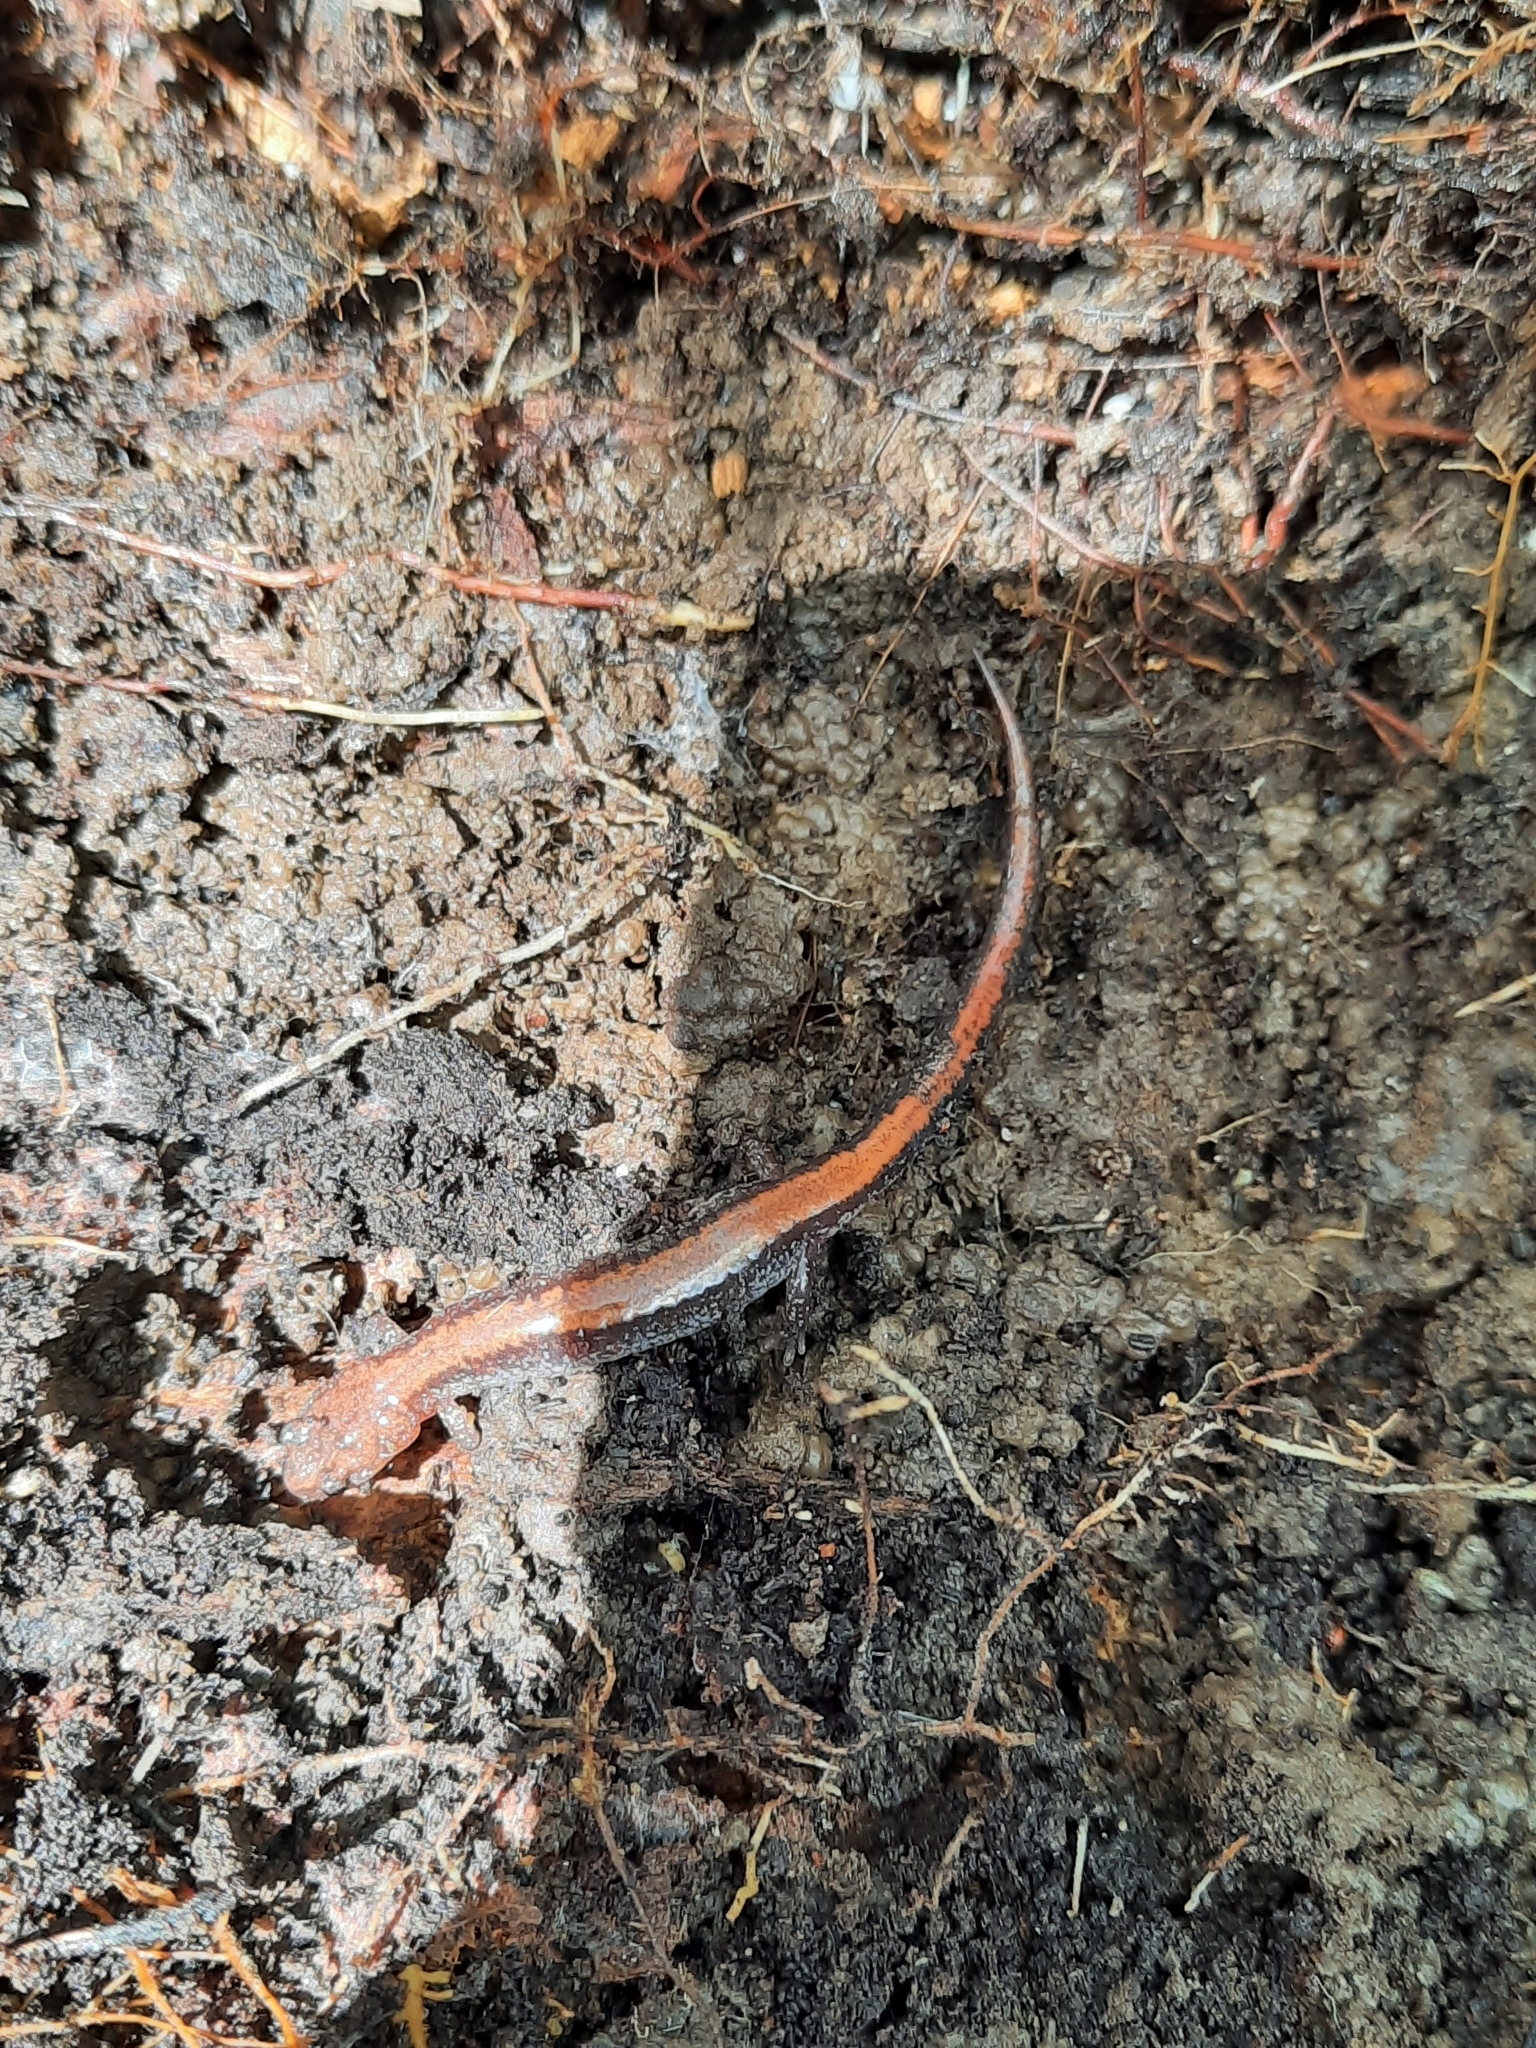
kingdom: Animalia
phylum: Chordata
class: Amphibia
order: Caudata
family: Plethodontidae
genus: Plethodon
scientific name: Plethodon cinereus
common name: Redback salamander
